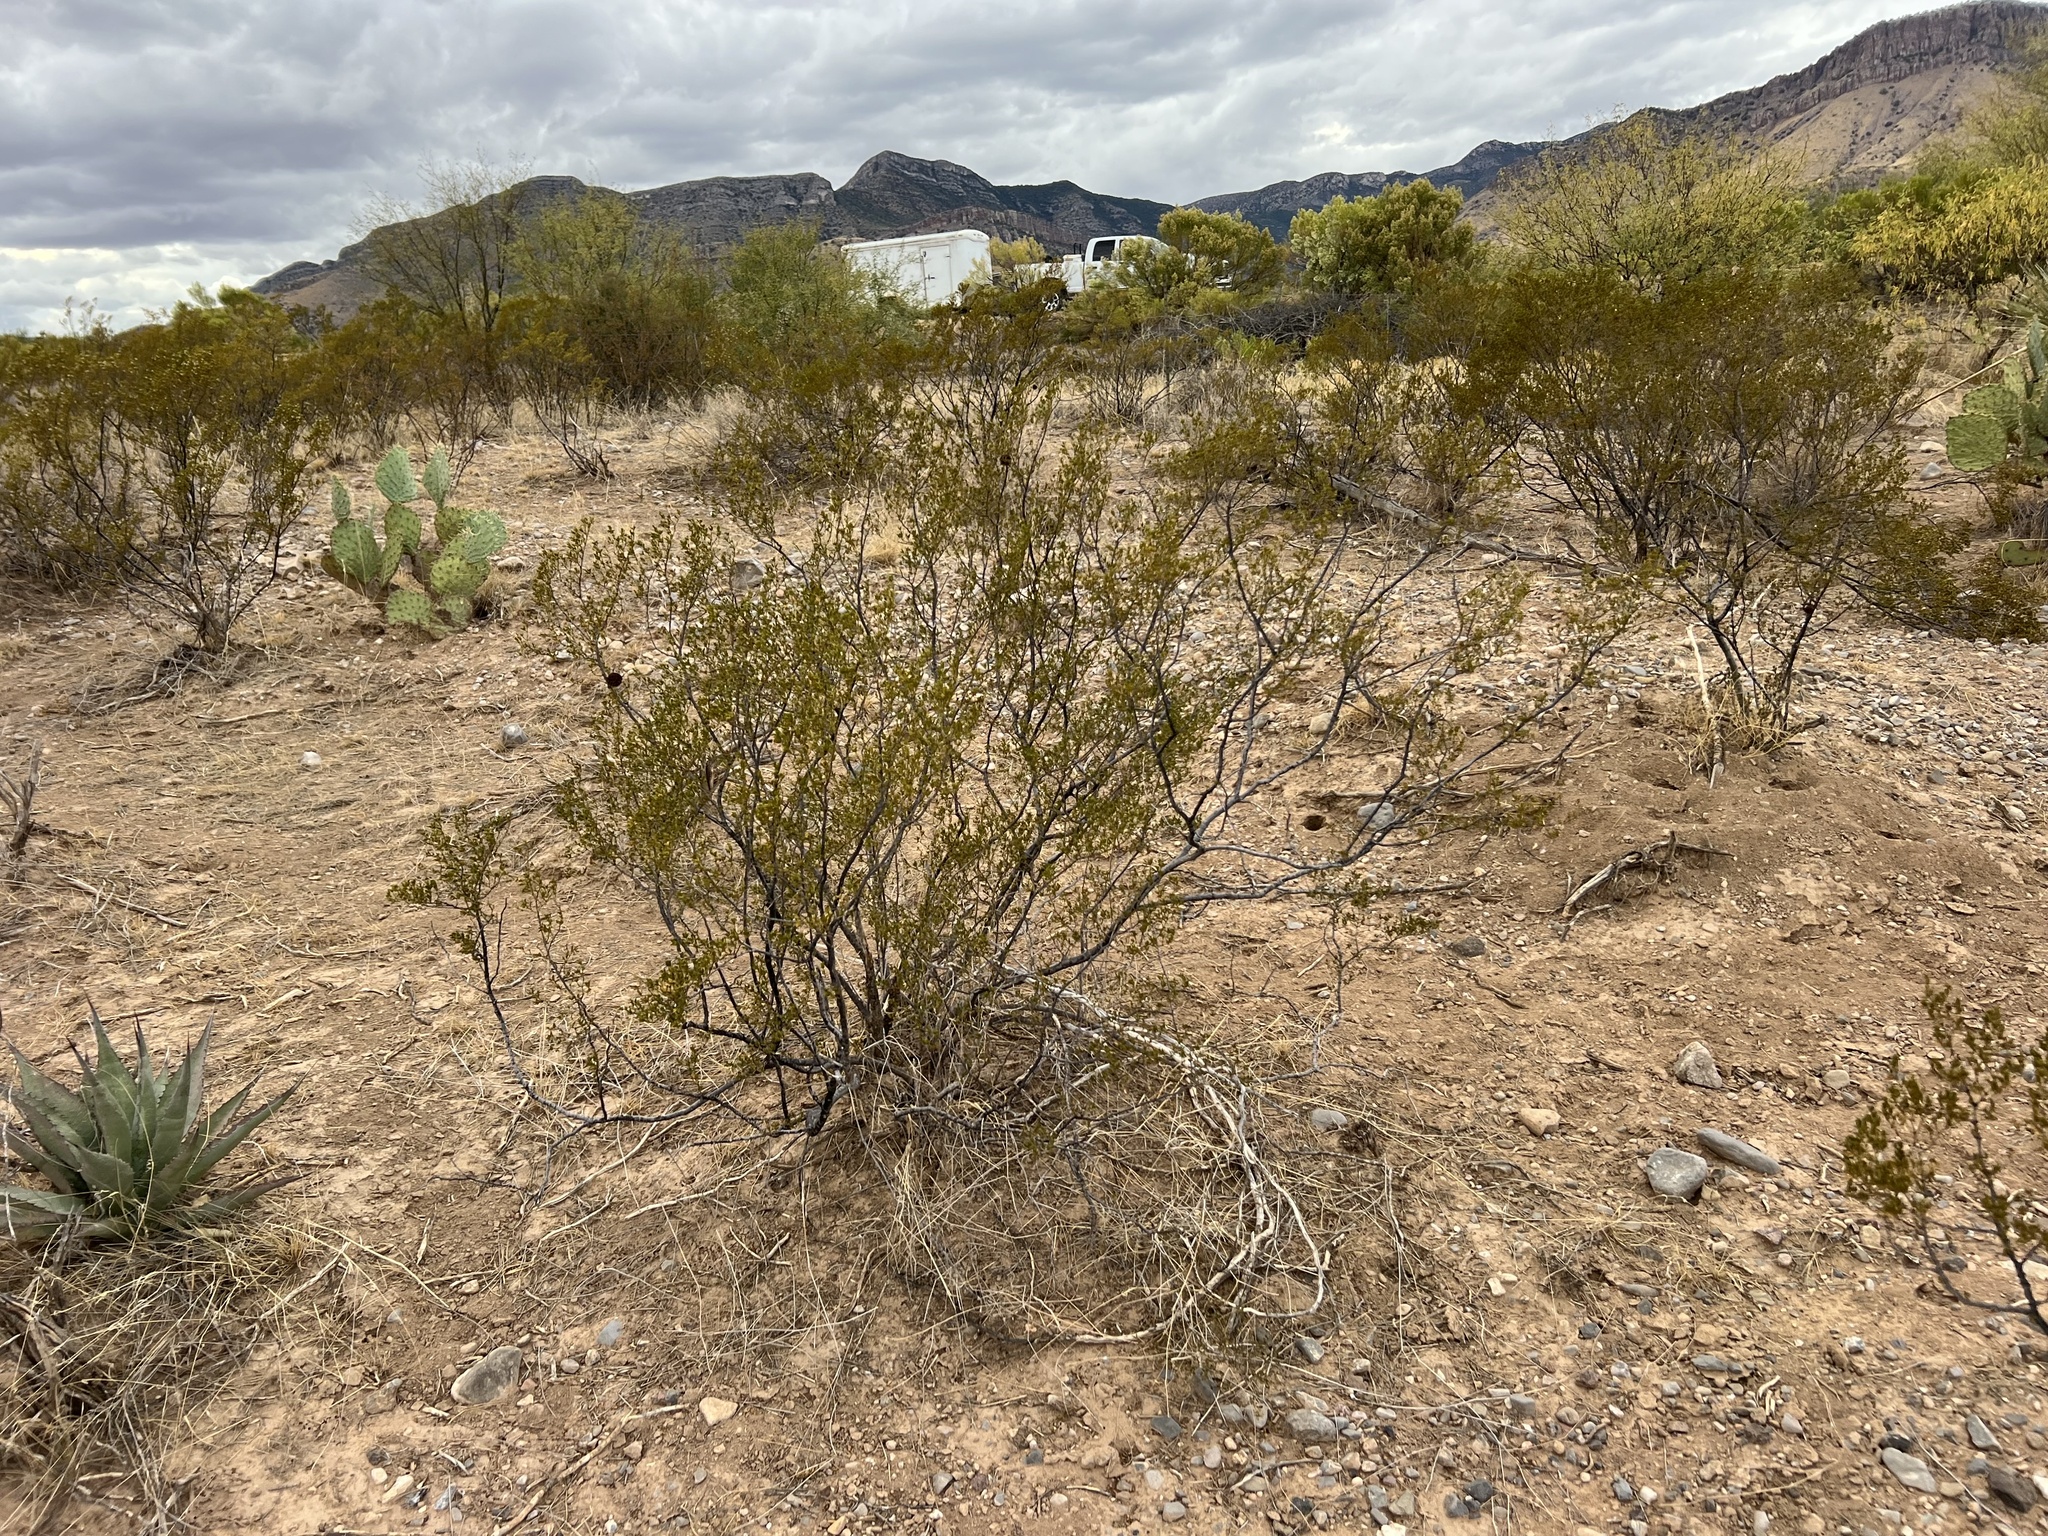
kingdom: Plantae
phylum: Tracheophyta
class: Magnoliopsida
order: Zygophyllales
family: Zygophyllaceae
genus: Larrea
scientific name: Larrea tridentata
